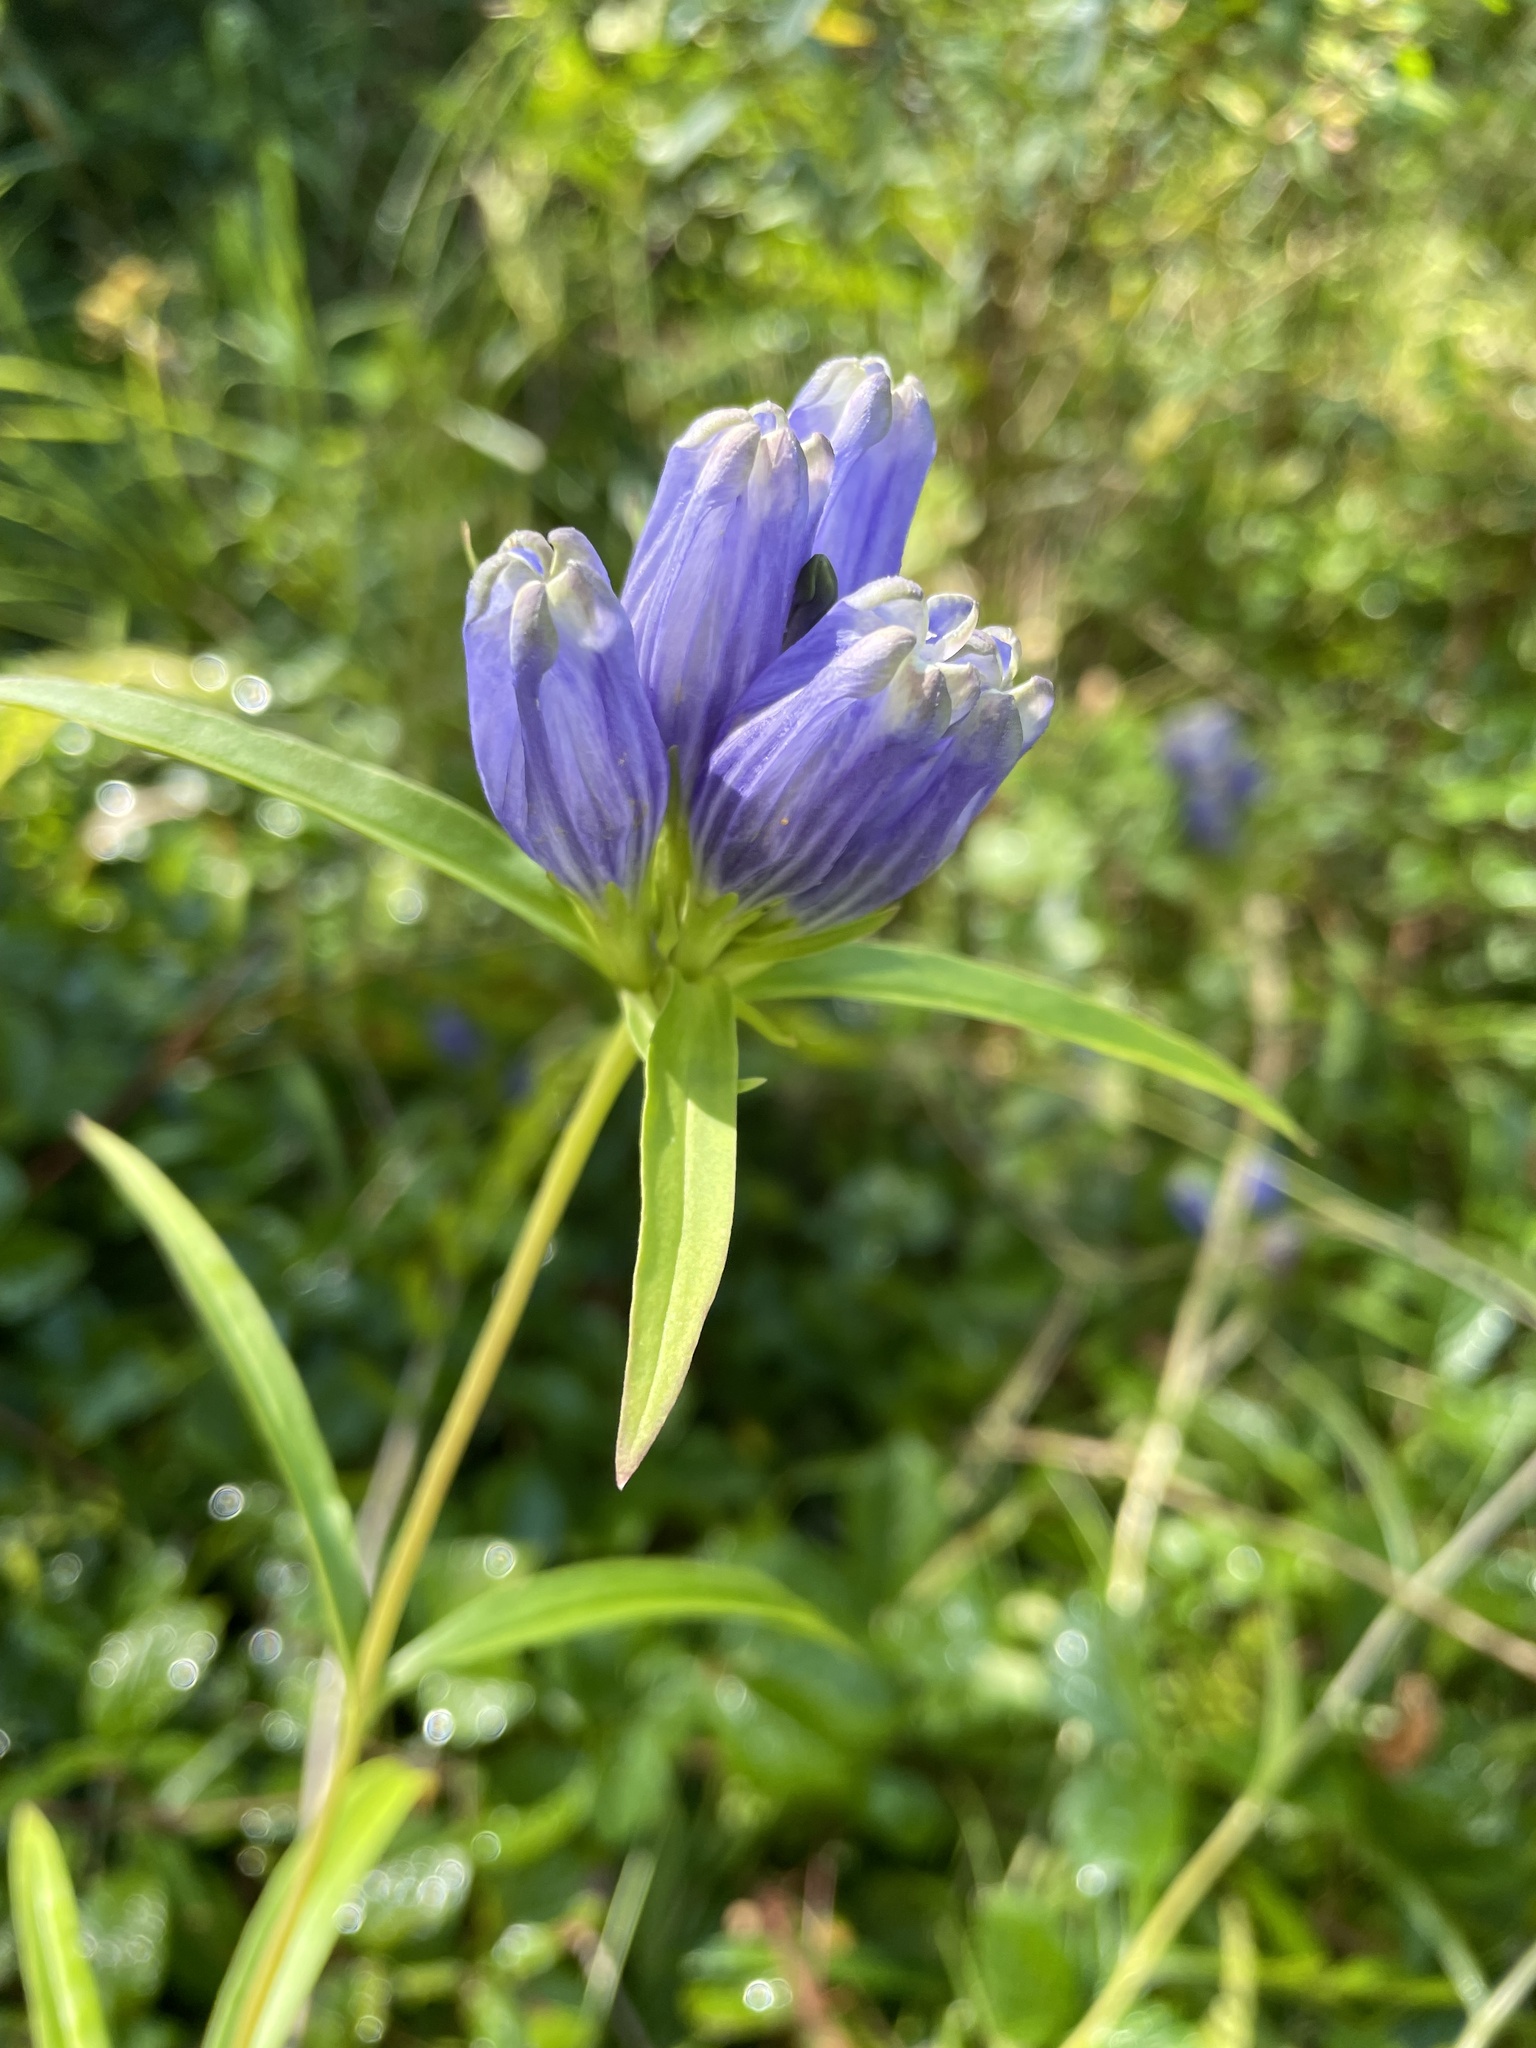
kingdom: Plantae
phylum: Tracheophyta
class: Magnoliopsida
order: Gentianales
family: Gentianaceae
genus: Gentiana
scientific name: Gentiana linearis
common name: Bastard gentian
